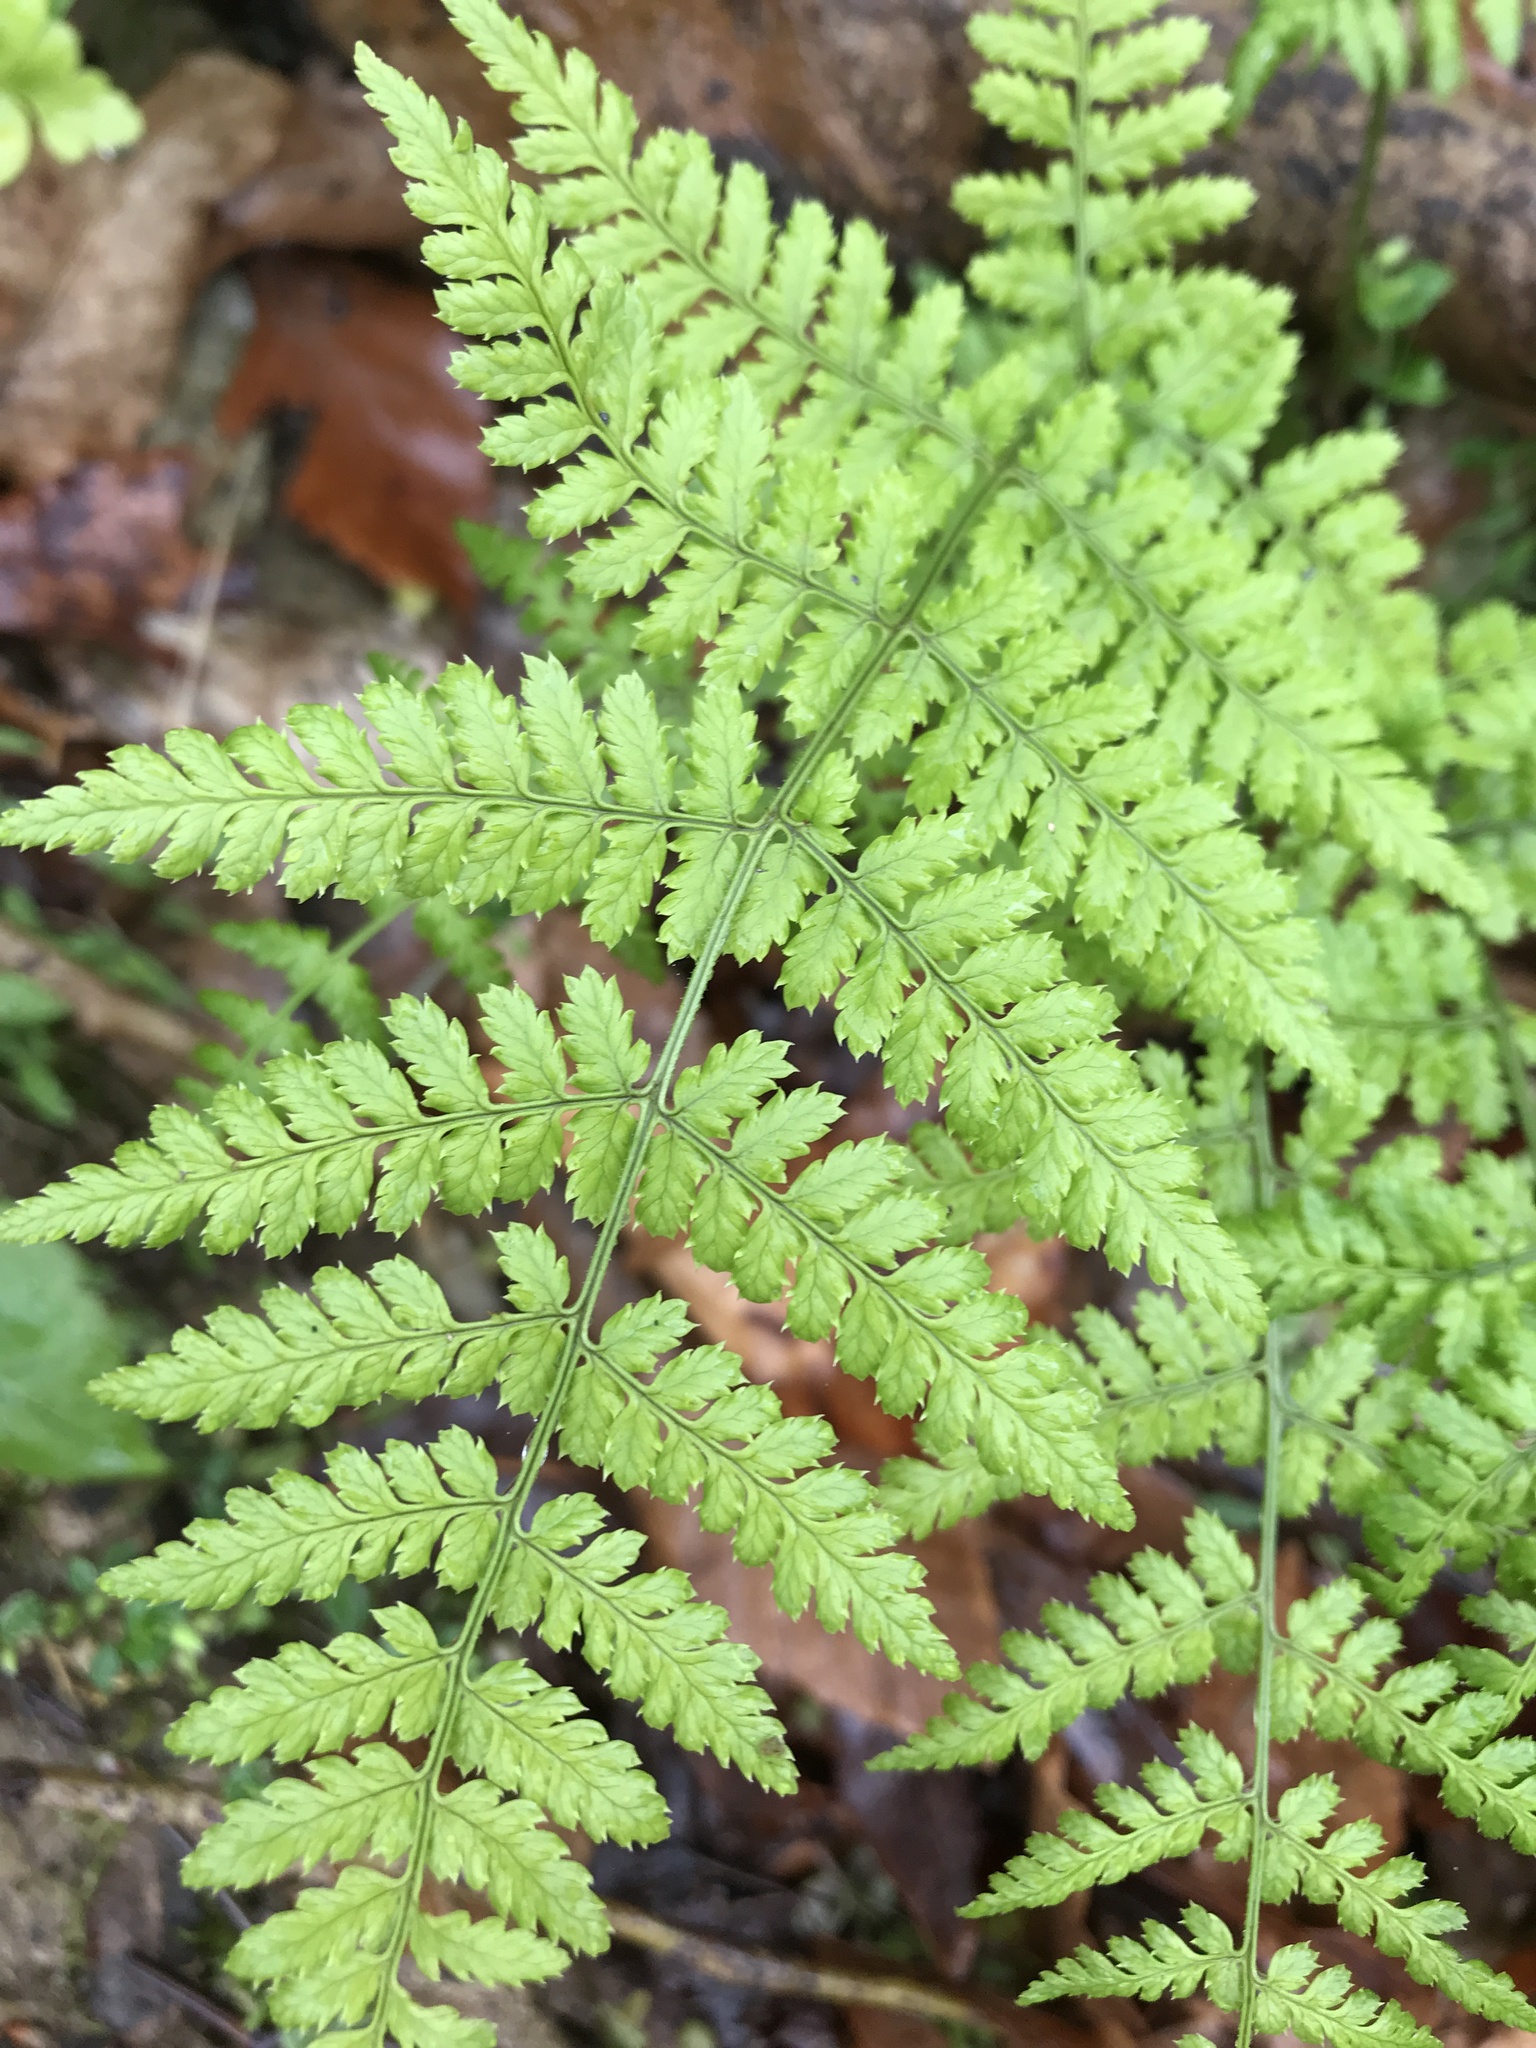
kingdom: Plantae
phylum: Tracheophyta
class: Polypodiopsida
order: Polypodiales
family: Dryopteridaceae
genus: Dryopteris
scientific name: Dryopteris intermedia
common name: Evergreen wood fern
